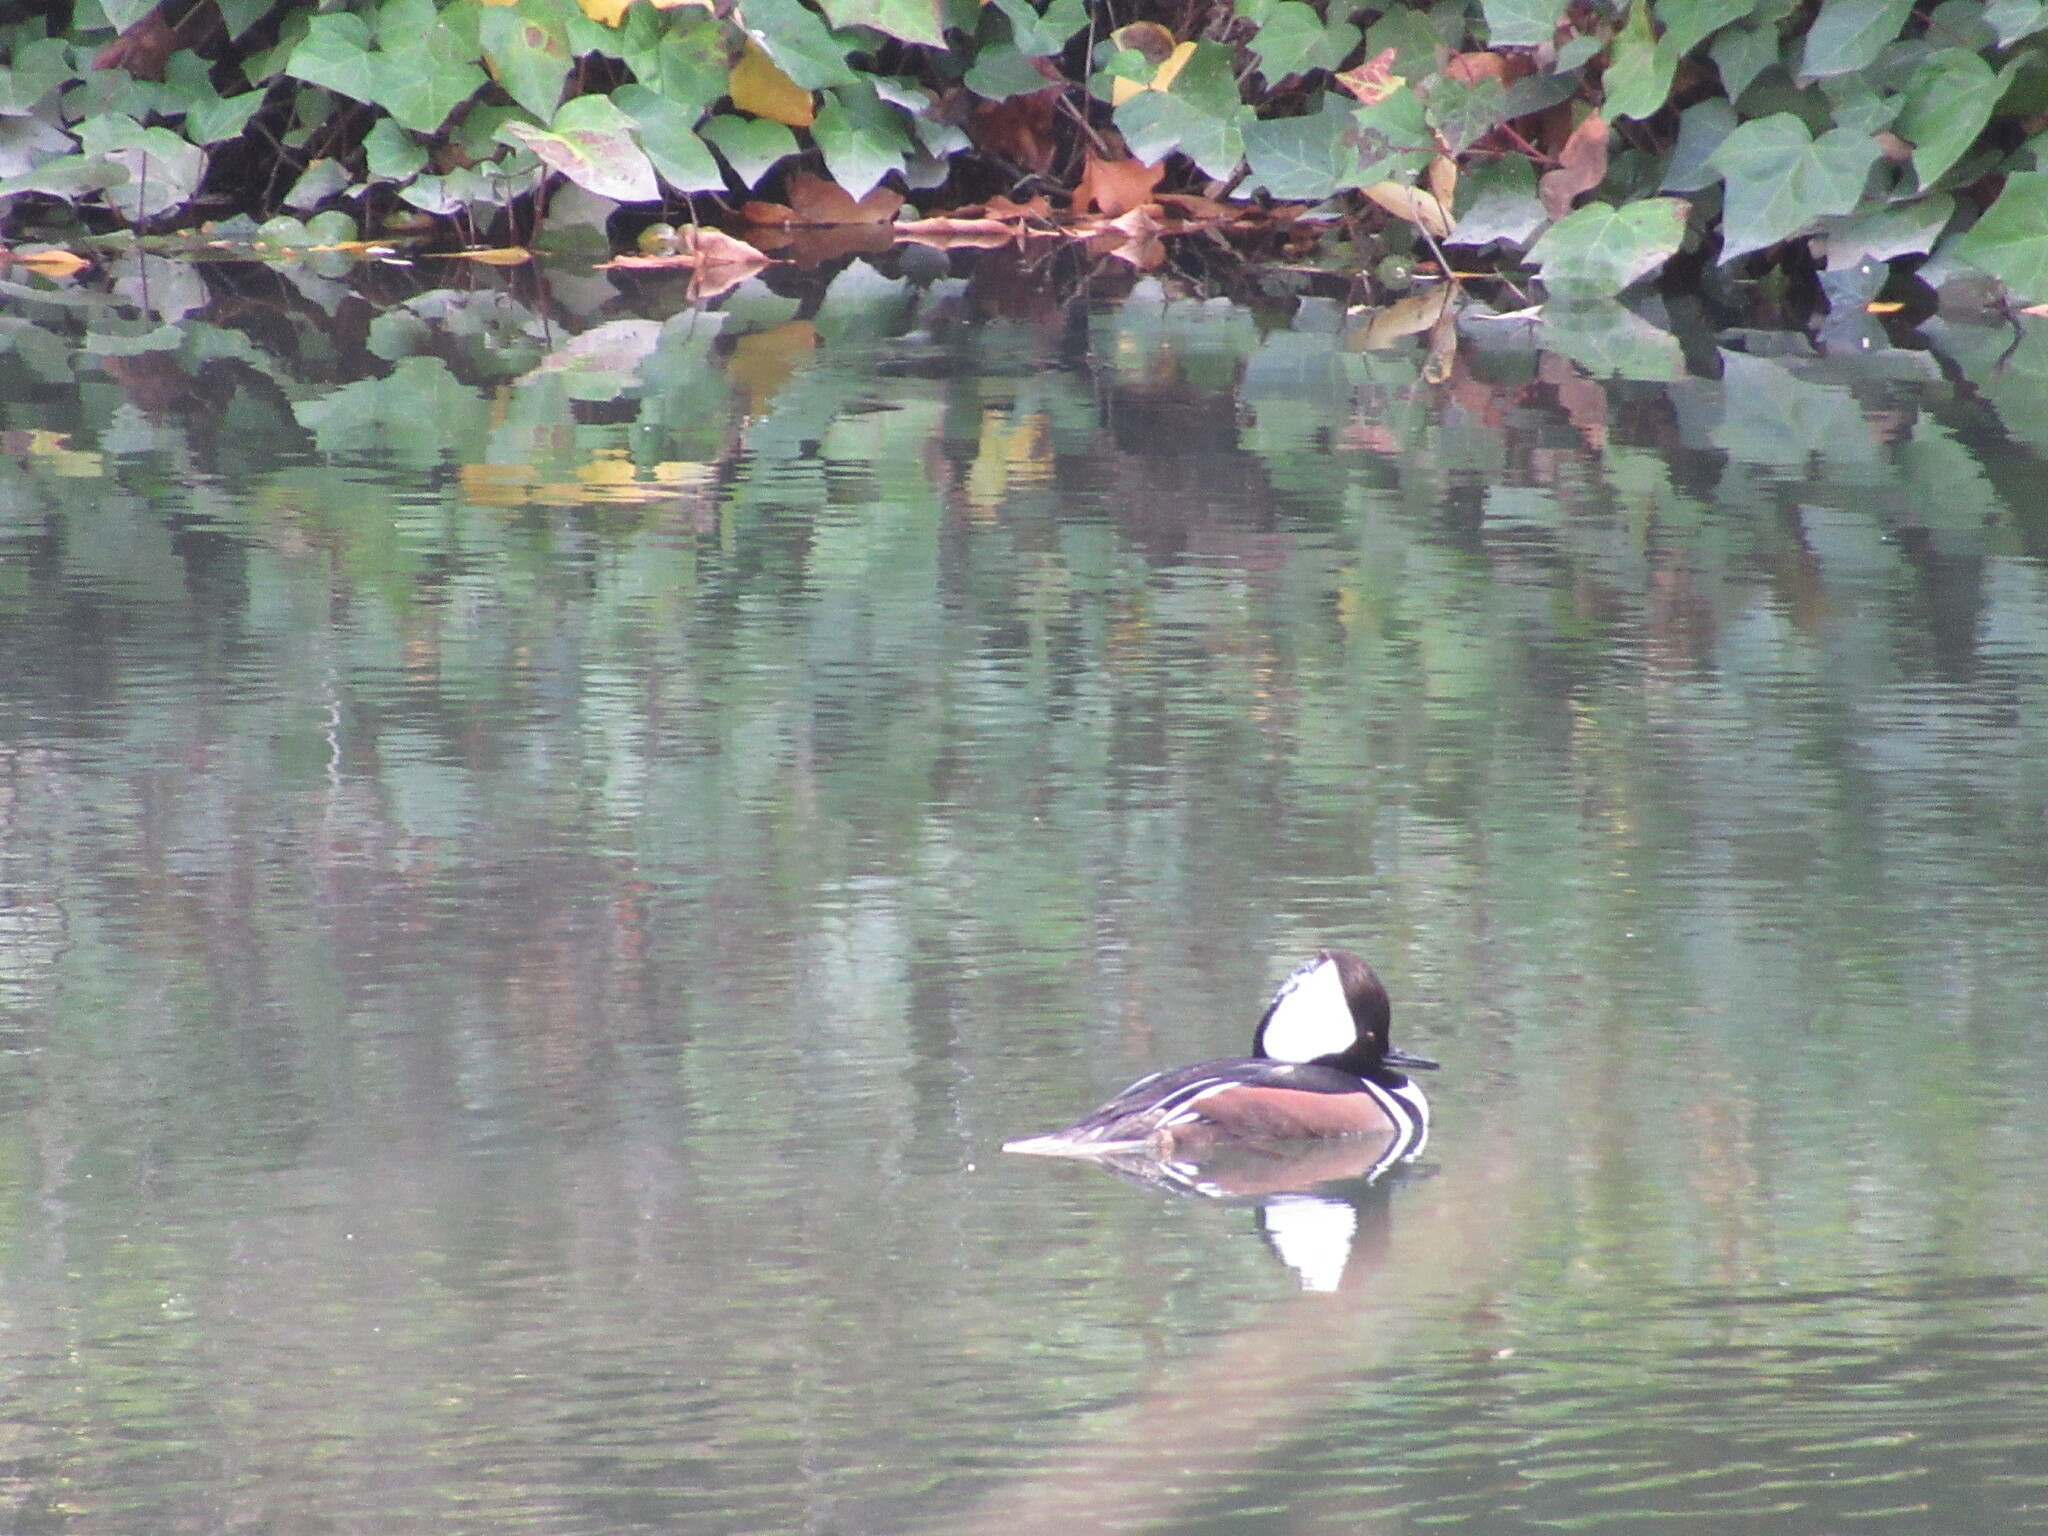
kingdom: Animalia
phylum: Chordata
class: Aves
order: Anseriformes
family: Anatidae
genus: Lophodytes
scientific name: Lophodytes cucullatus
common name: Hooded merganser
